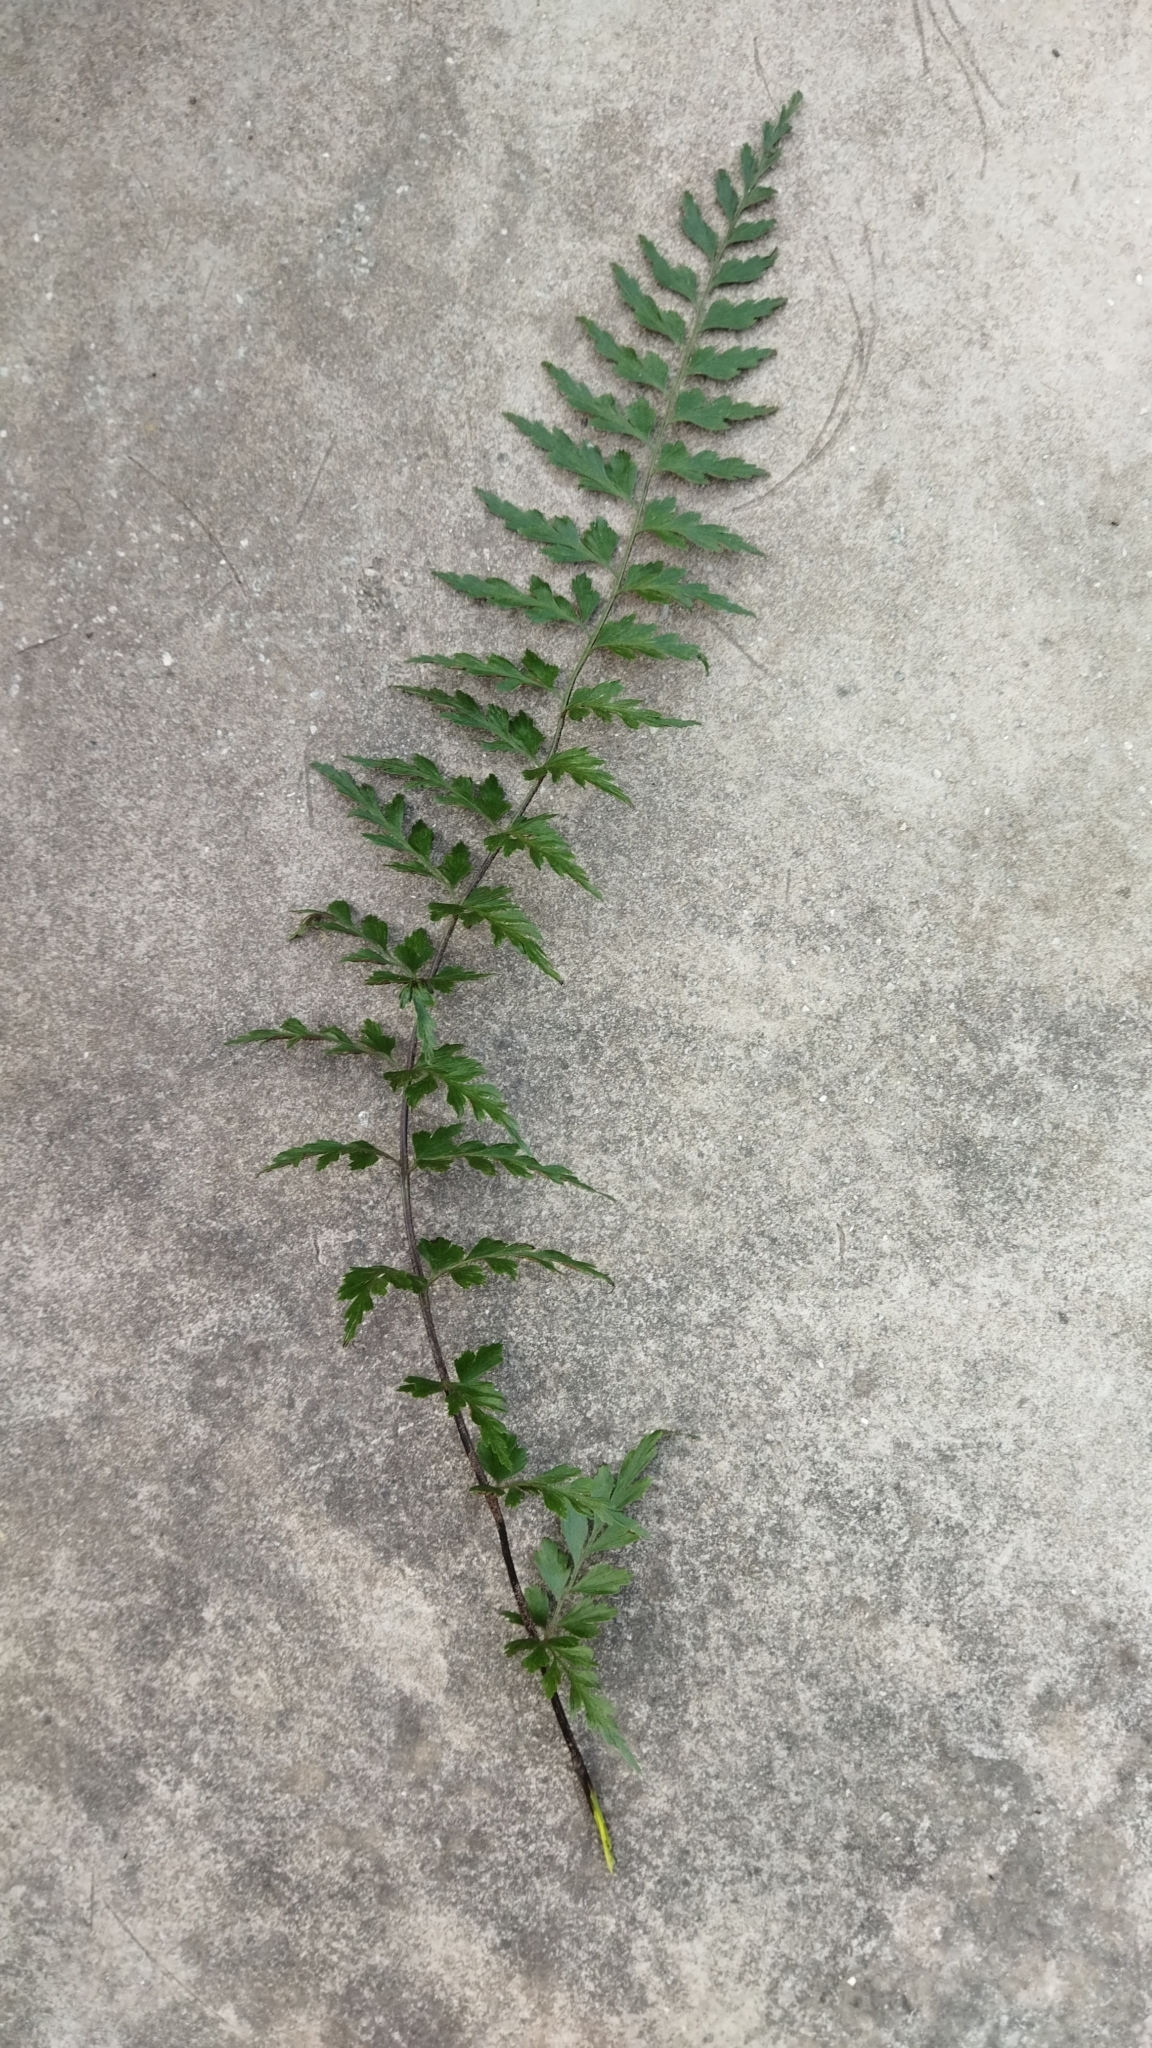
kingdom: Plantae
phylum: Tracheophyta
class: Polypodiopsida
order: Polypodiales
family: Aspleniaceae
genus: Asplenium
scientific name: Asplenium aethiopicum
